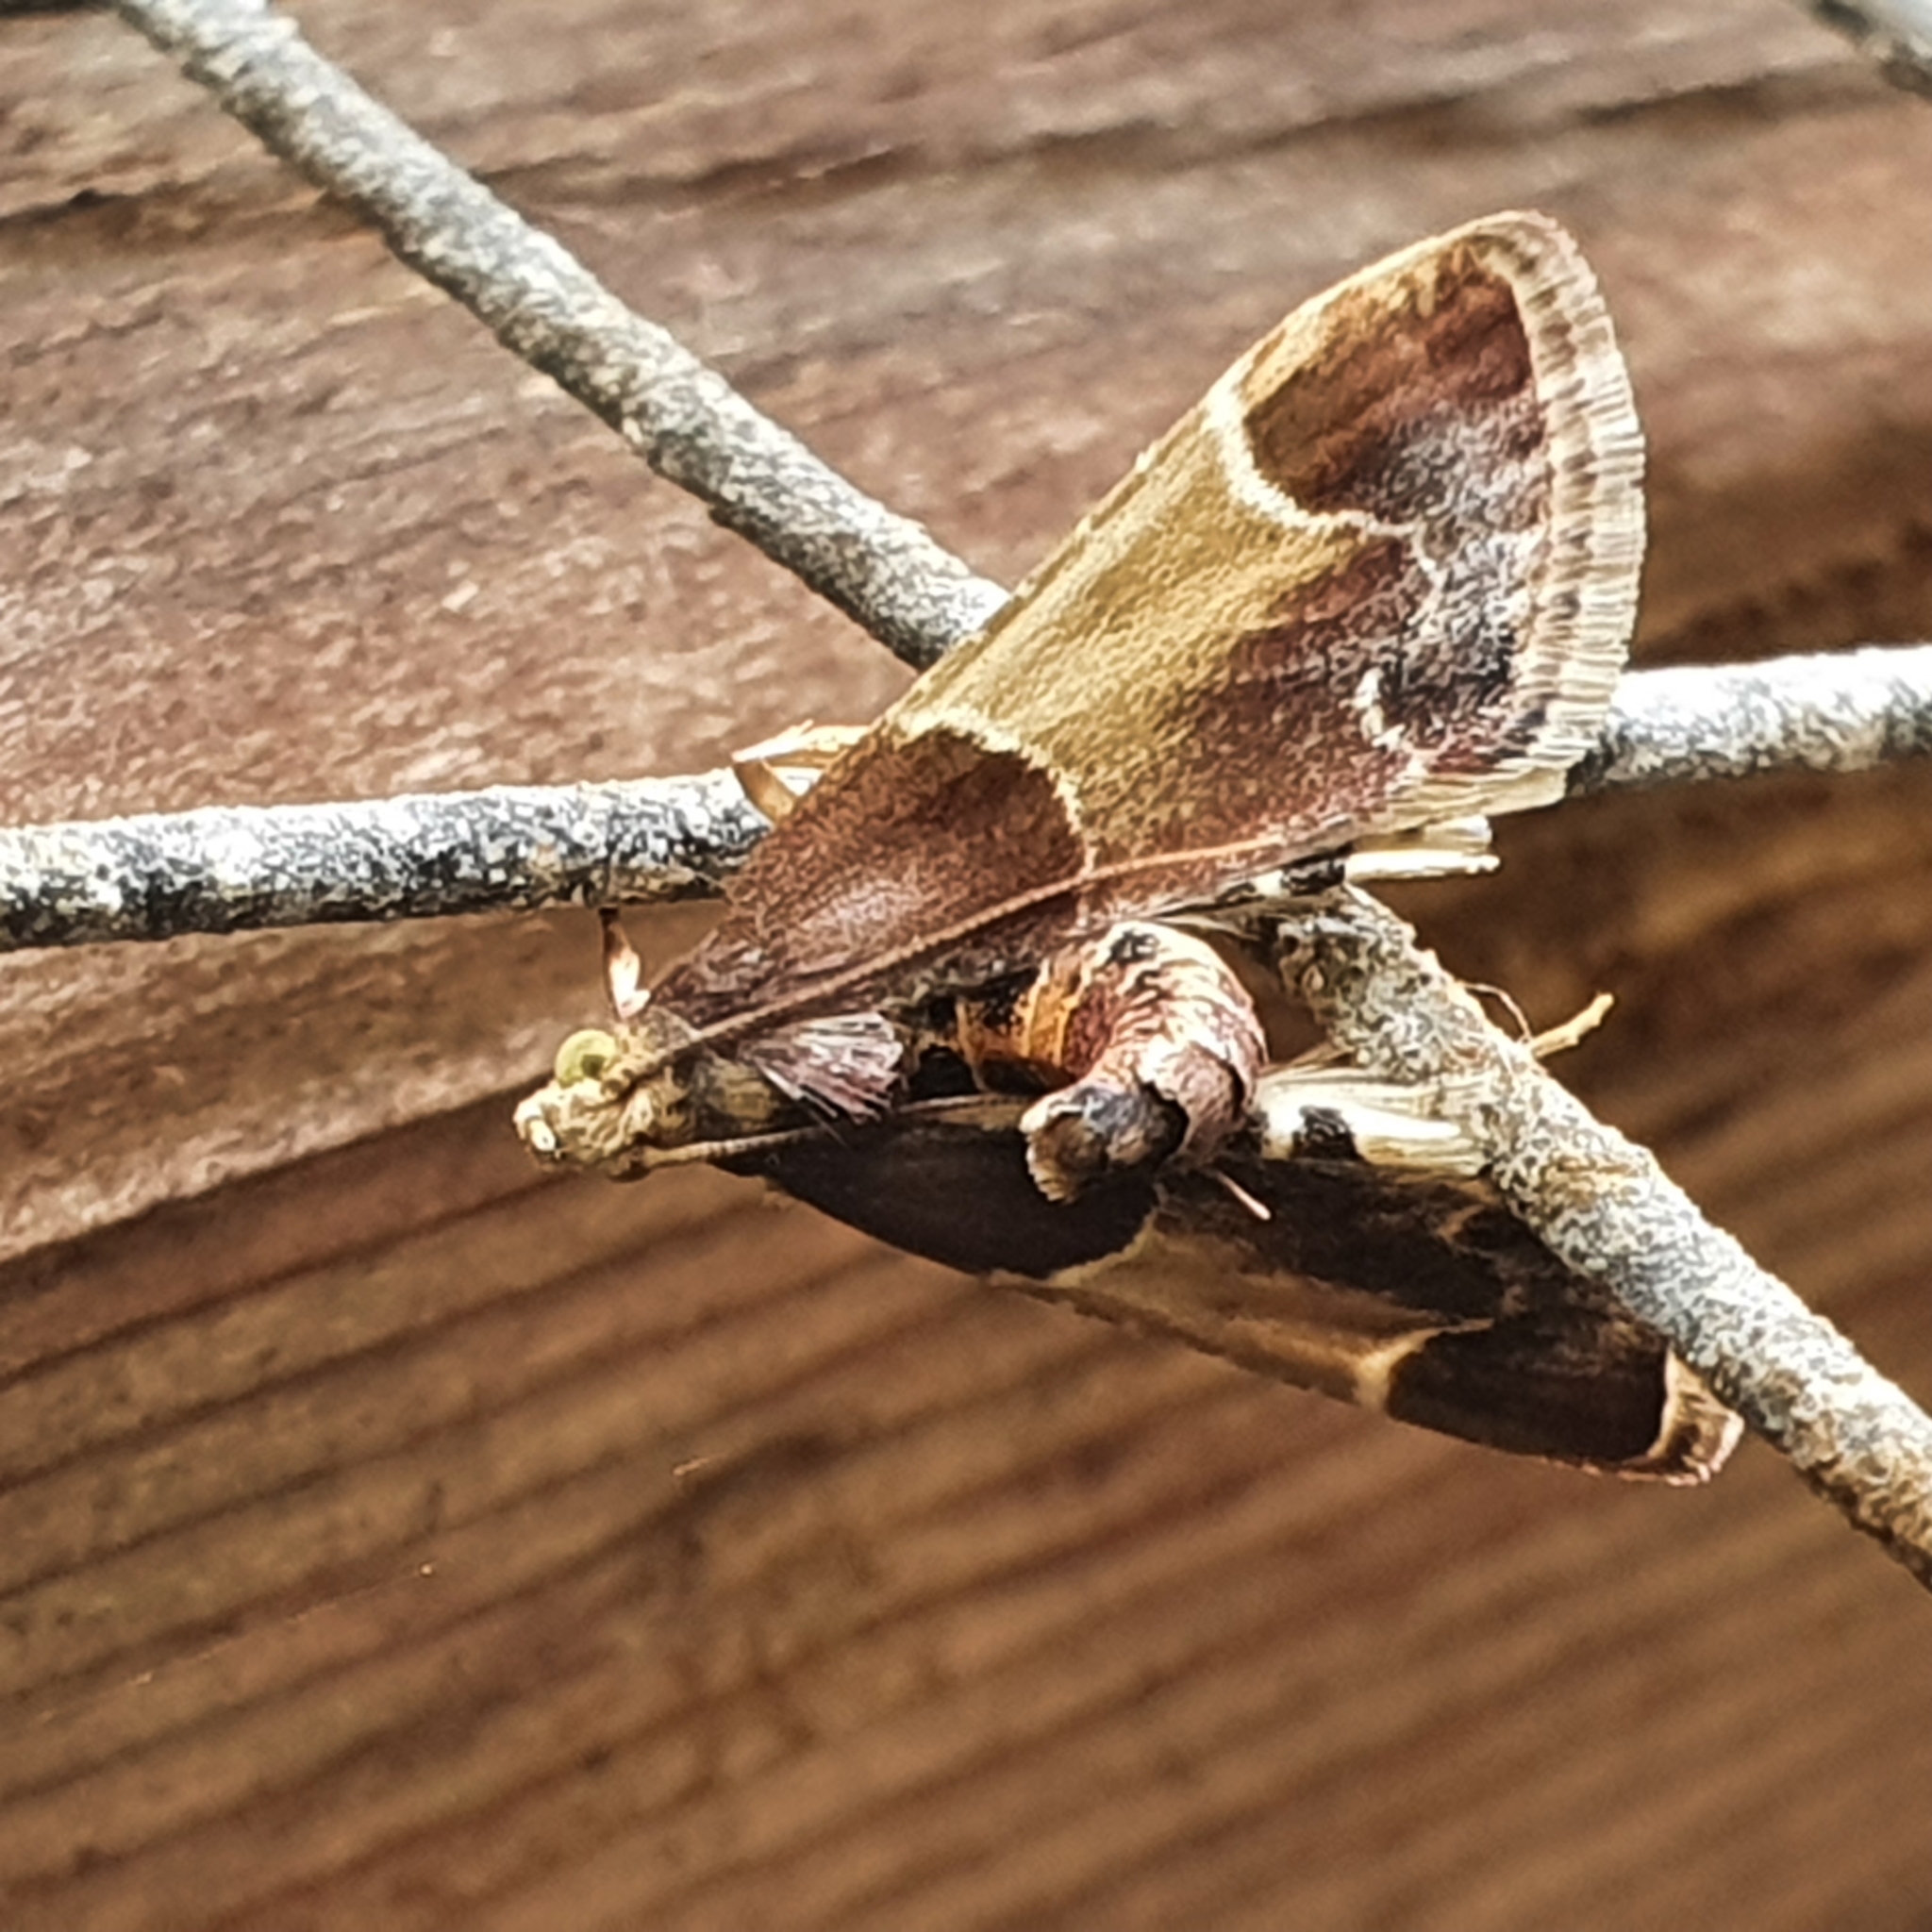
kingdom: Animalia
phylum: Arthropoda
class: Insecta
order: Lepidoptera
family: Pyralidae
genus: Pyralis
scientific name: Pyralis farinalis
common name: Meal moth
